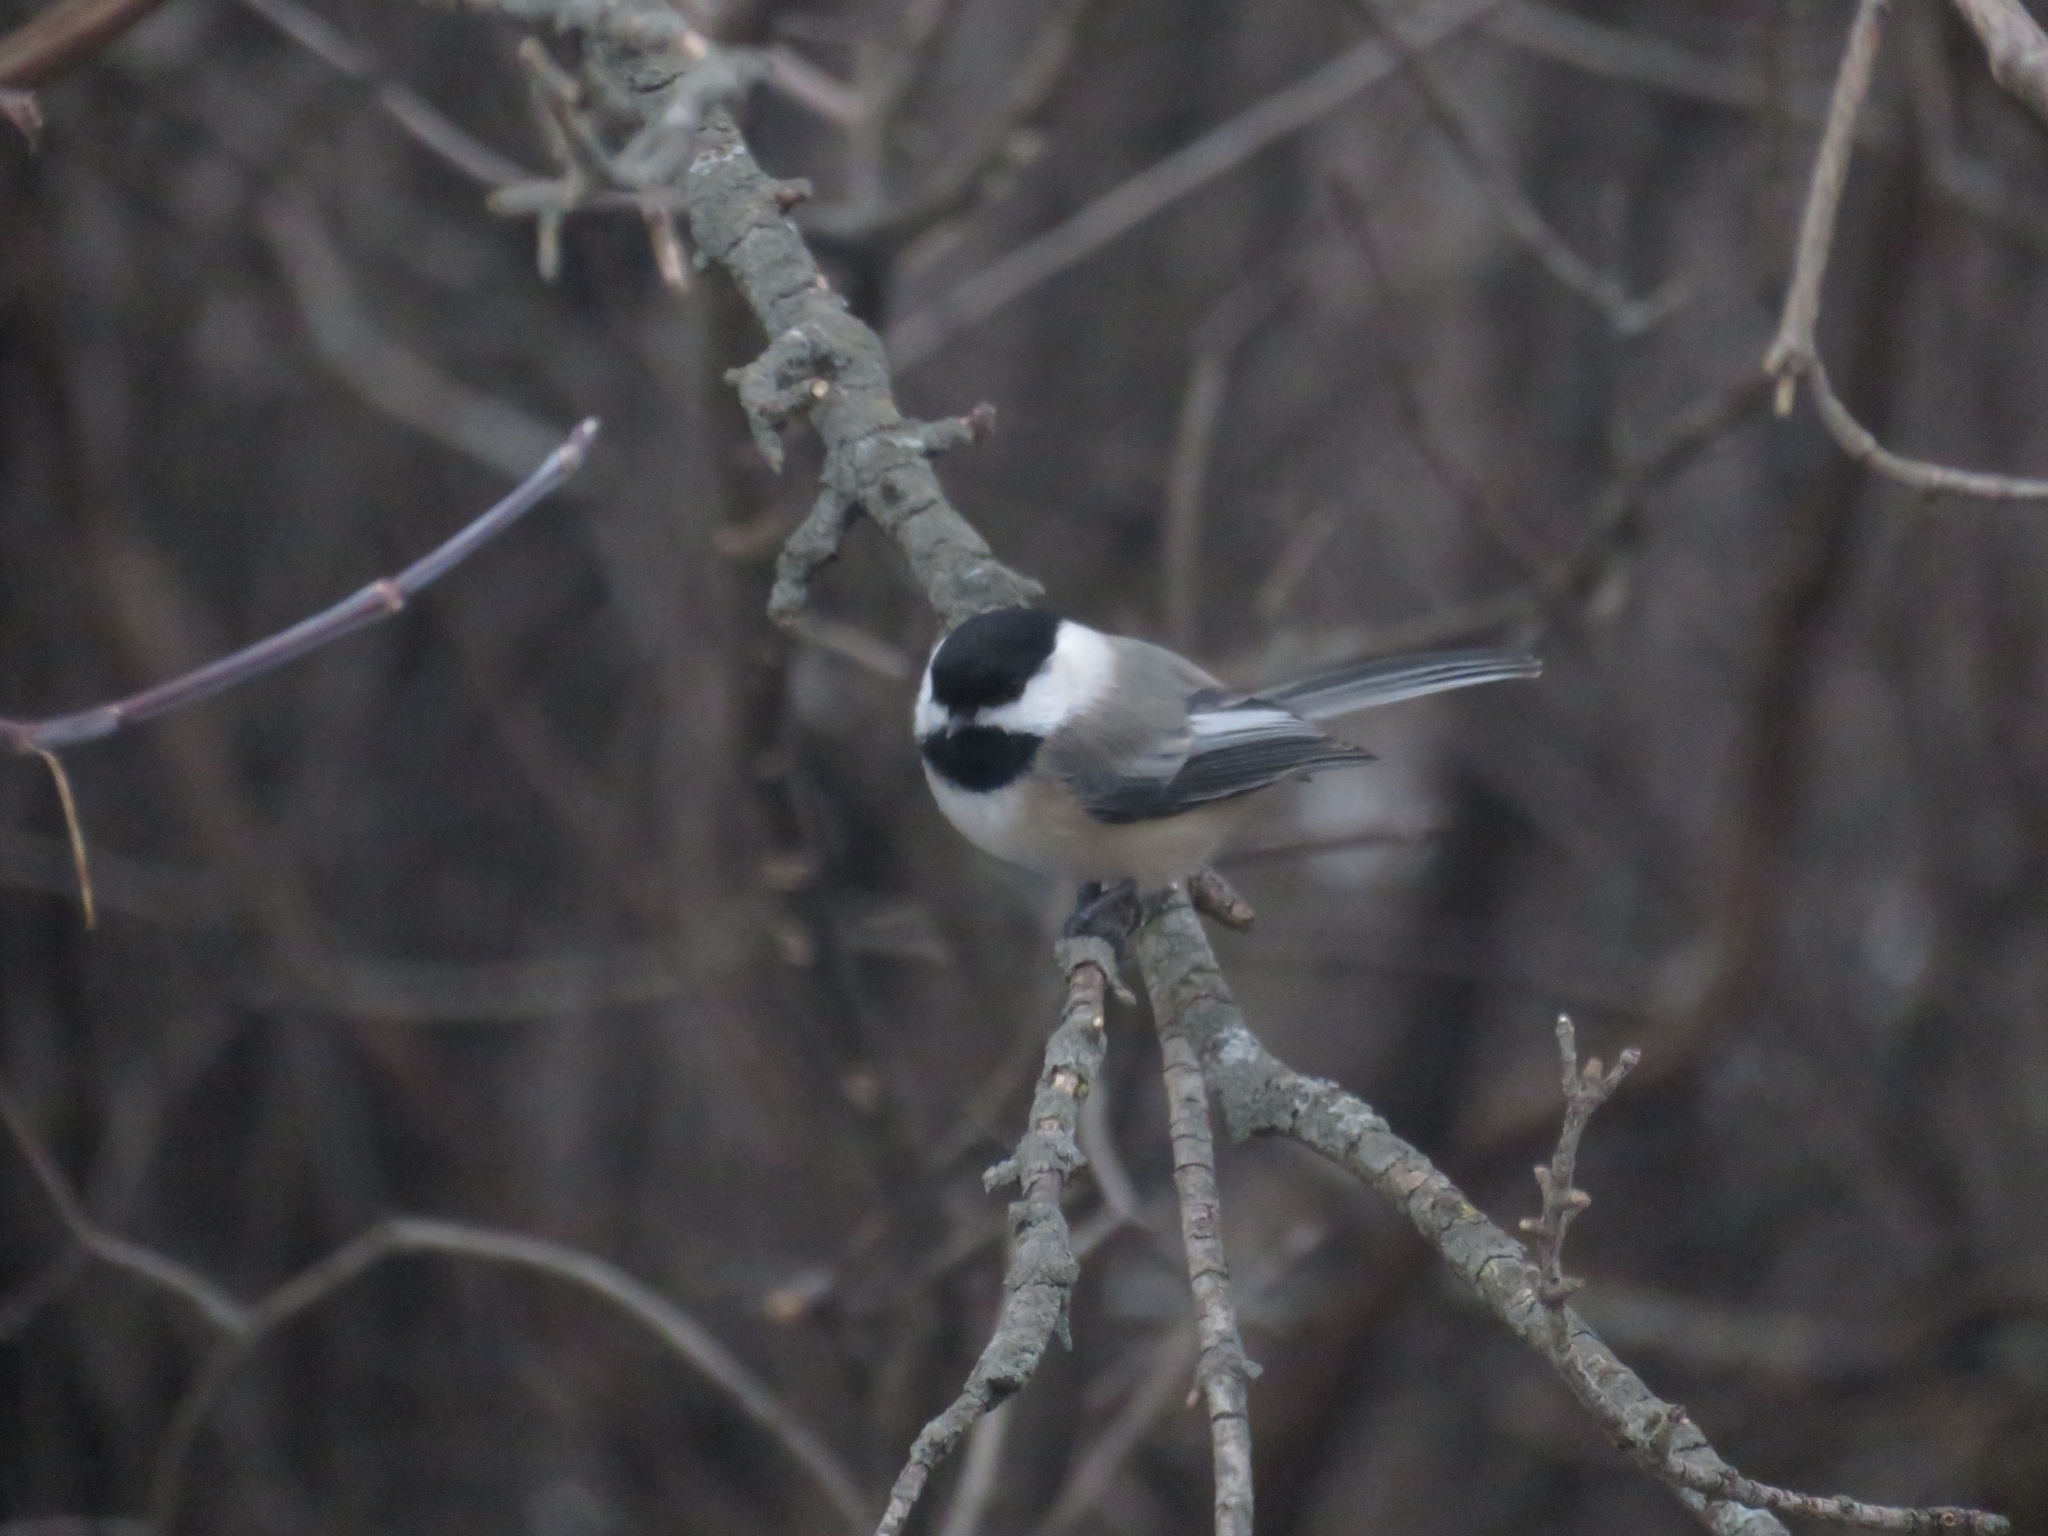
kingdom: Animalia
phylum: Chordata
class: Aves
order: Passeriformes
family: Paridae
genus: Poecile
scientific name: Poecile atricapillus
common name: Black-capped chickadee
